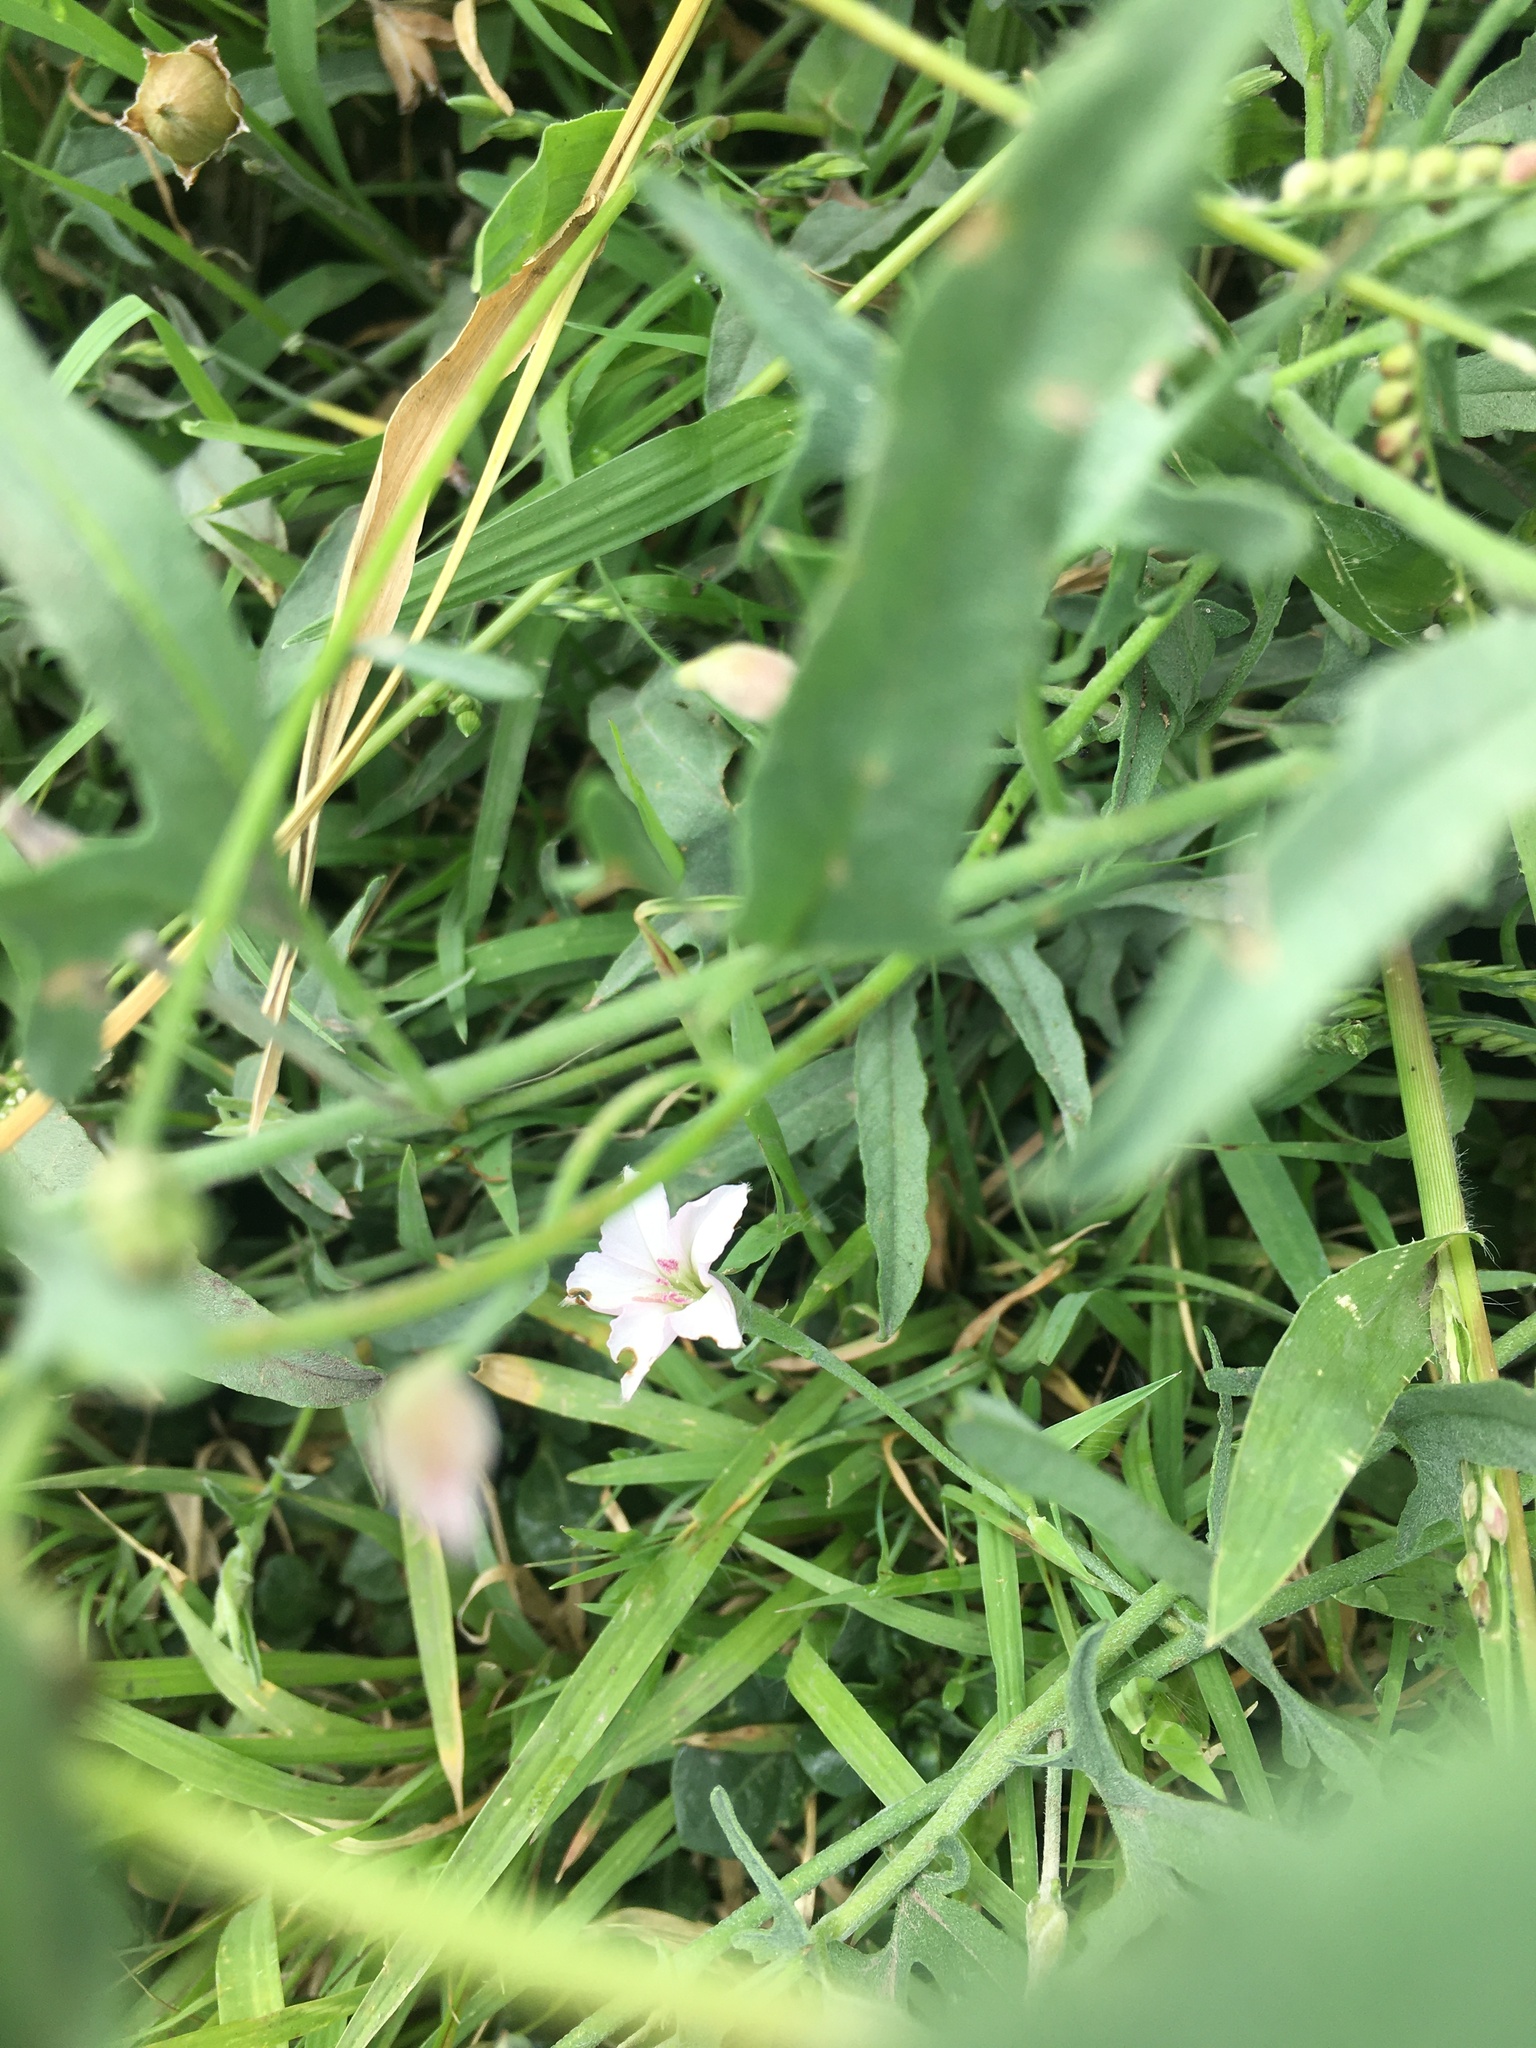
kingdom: Plantae
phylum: Tracheophyta
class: Magnoliopsida
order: Solanales
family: Convolvulaceae
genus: Convolvulus
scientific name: Convolvulus equitans
